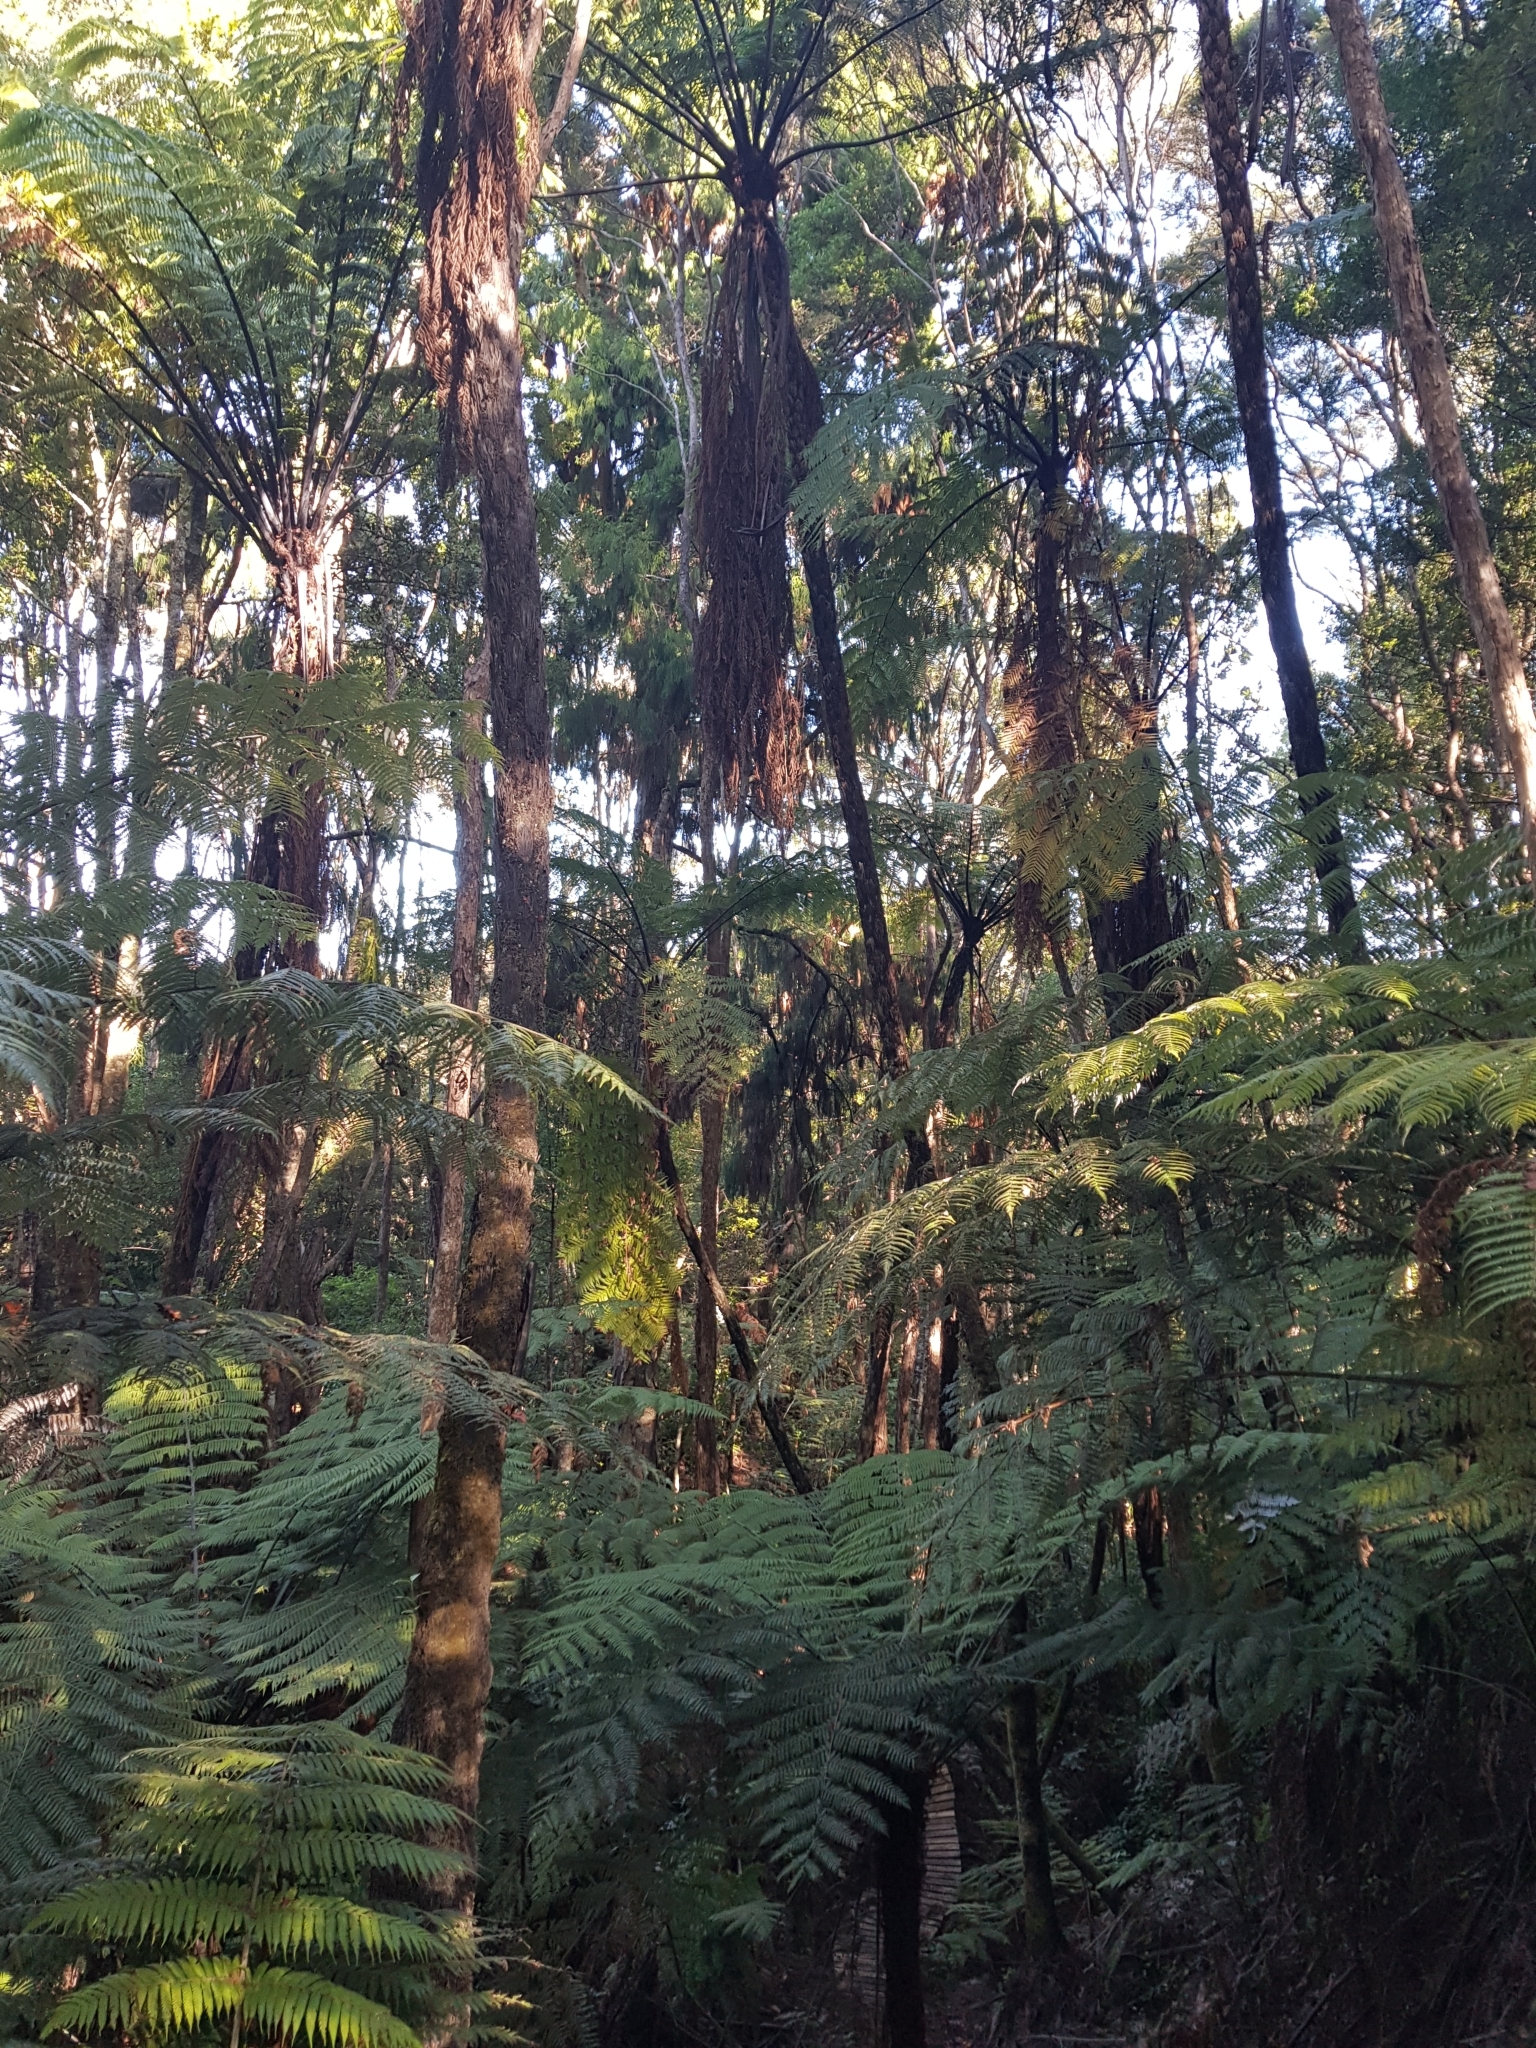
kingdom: Plantae
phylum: Tracheophyta
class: Polypodiopsida
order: Cyatheales
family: Cyatheaceae
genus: Sphaeropteris
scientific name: Sphaeropteris medullaris
